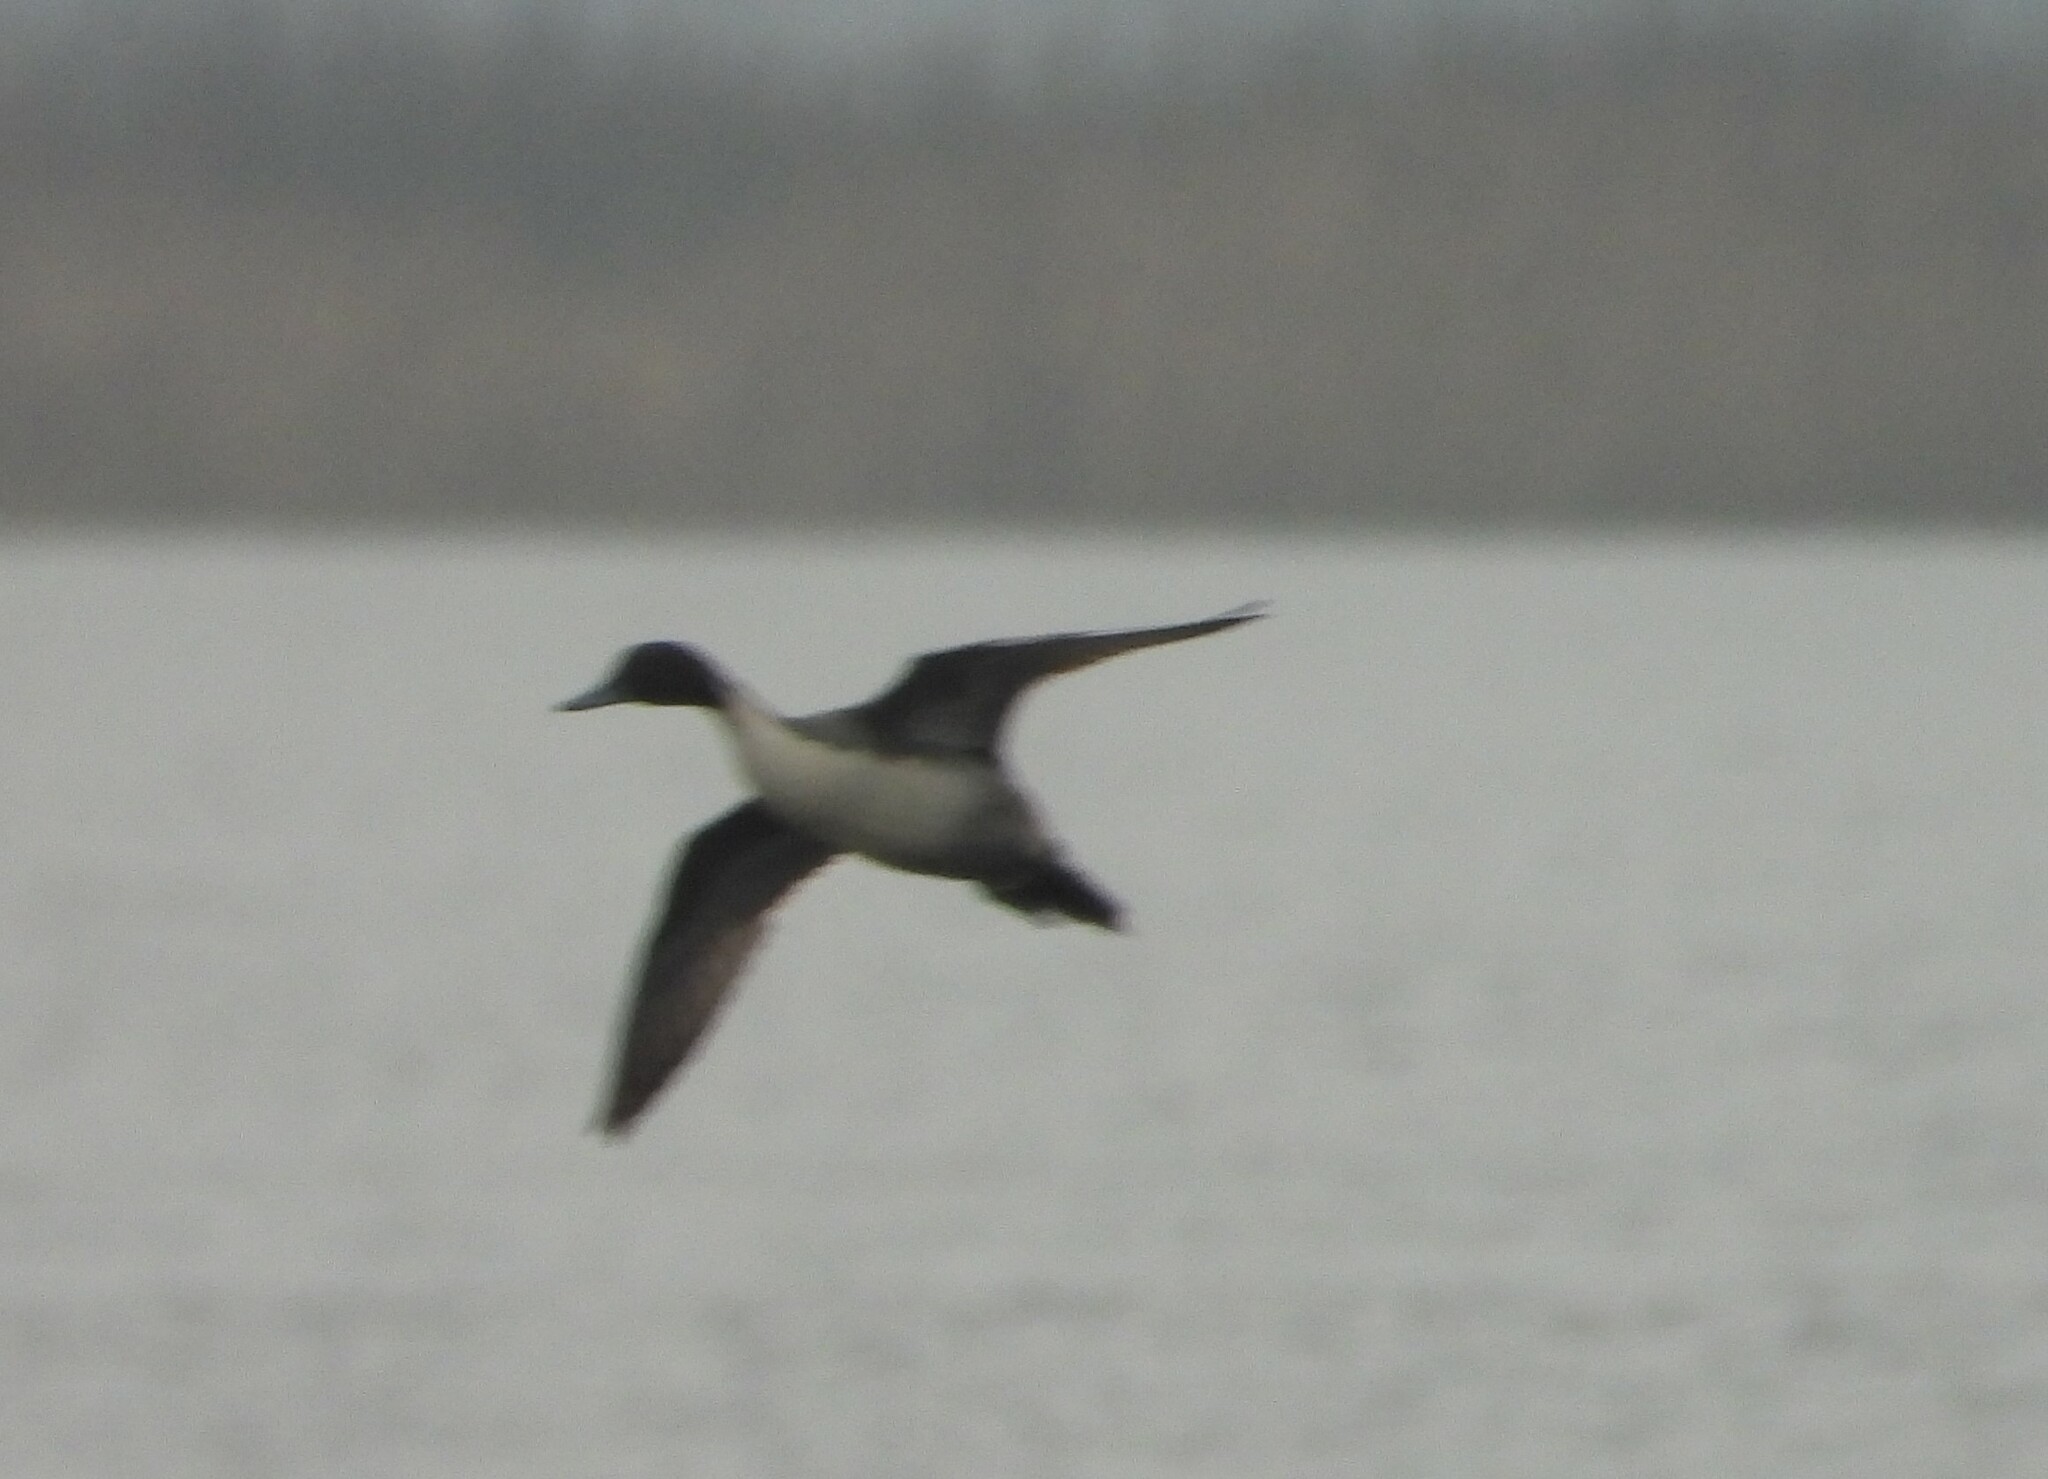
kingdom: Animalia
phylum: Chordata
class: Aves
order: Anseriformes
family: Anatidae
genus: Anas
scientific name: Anas acuta
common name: Northern pintail
